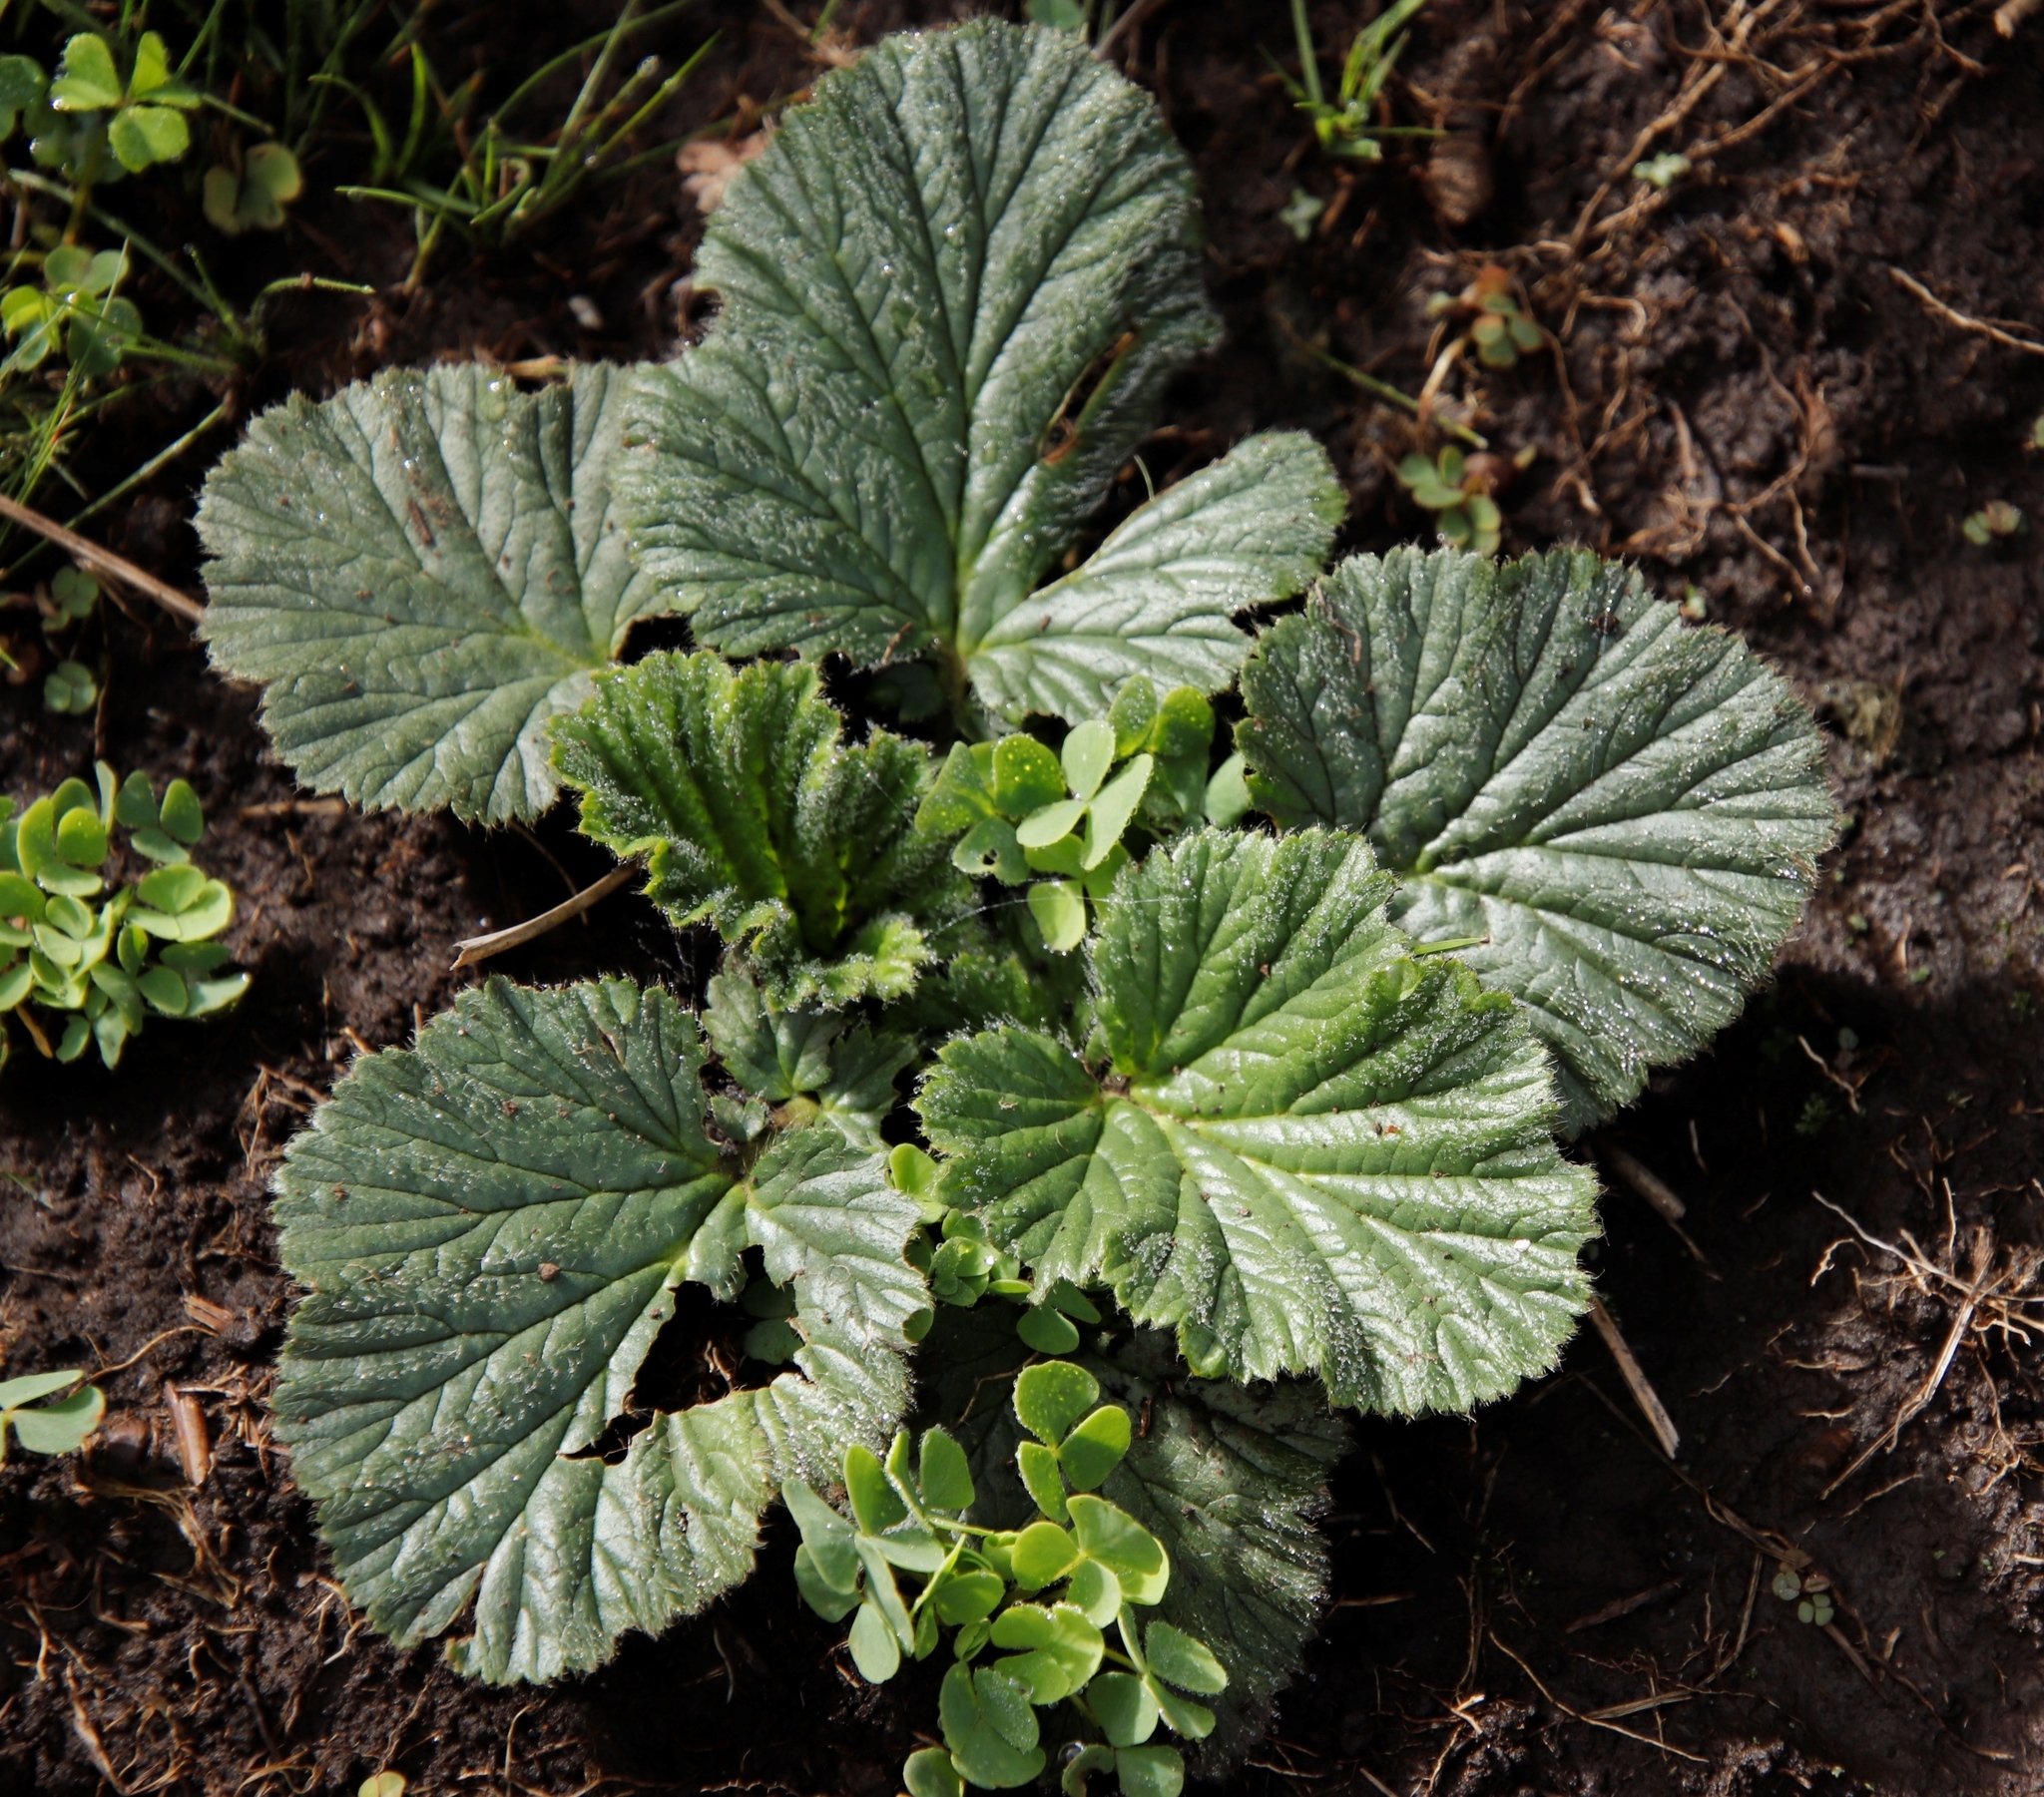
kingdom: Plantae
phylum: Tracheophyta
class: Magnoliopsida
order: Rosales
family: Rosaceae
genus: Geum
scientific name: Geum capense
